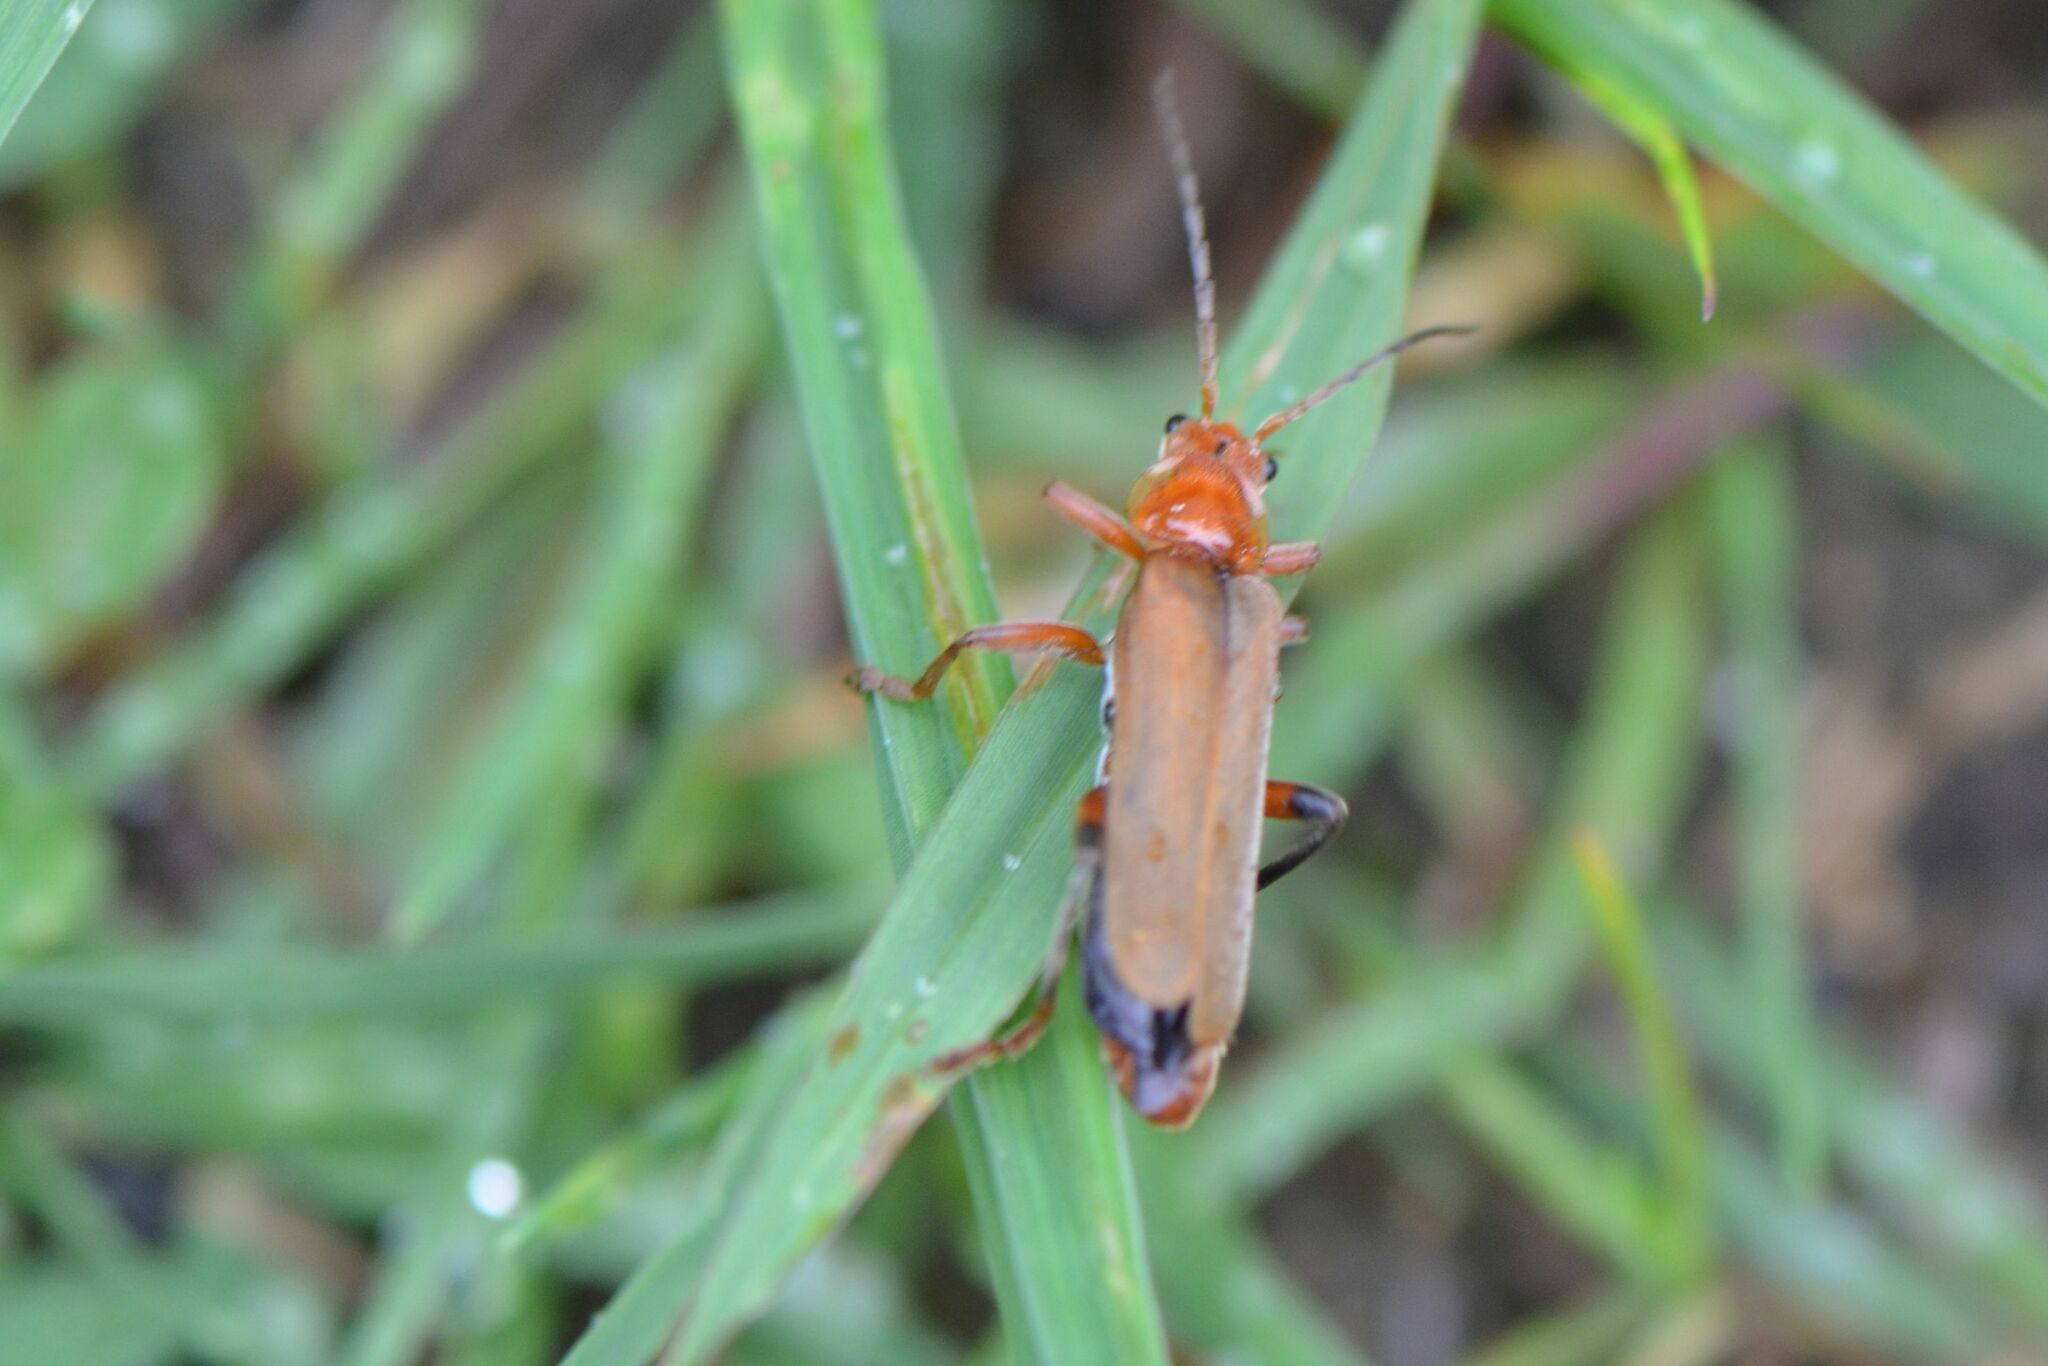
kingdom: Animalia
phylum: Arthropoda
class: Insecta
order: Coleoptera
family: Cantharidae
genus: Cantharis
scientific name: Cantharis livida
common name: Livid soldier beetle
